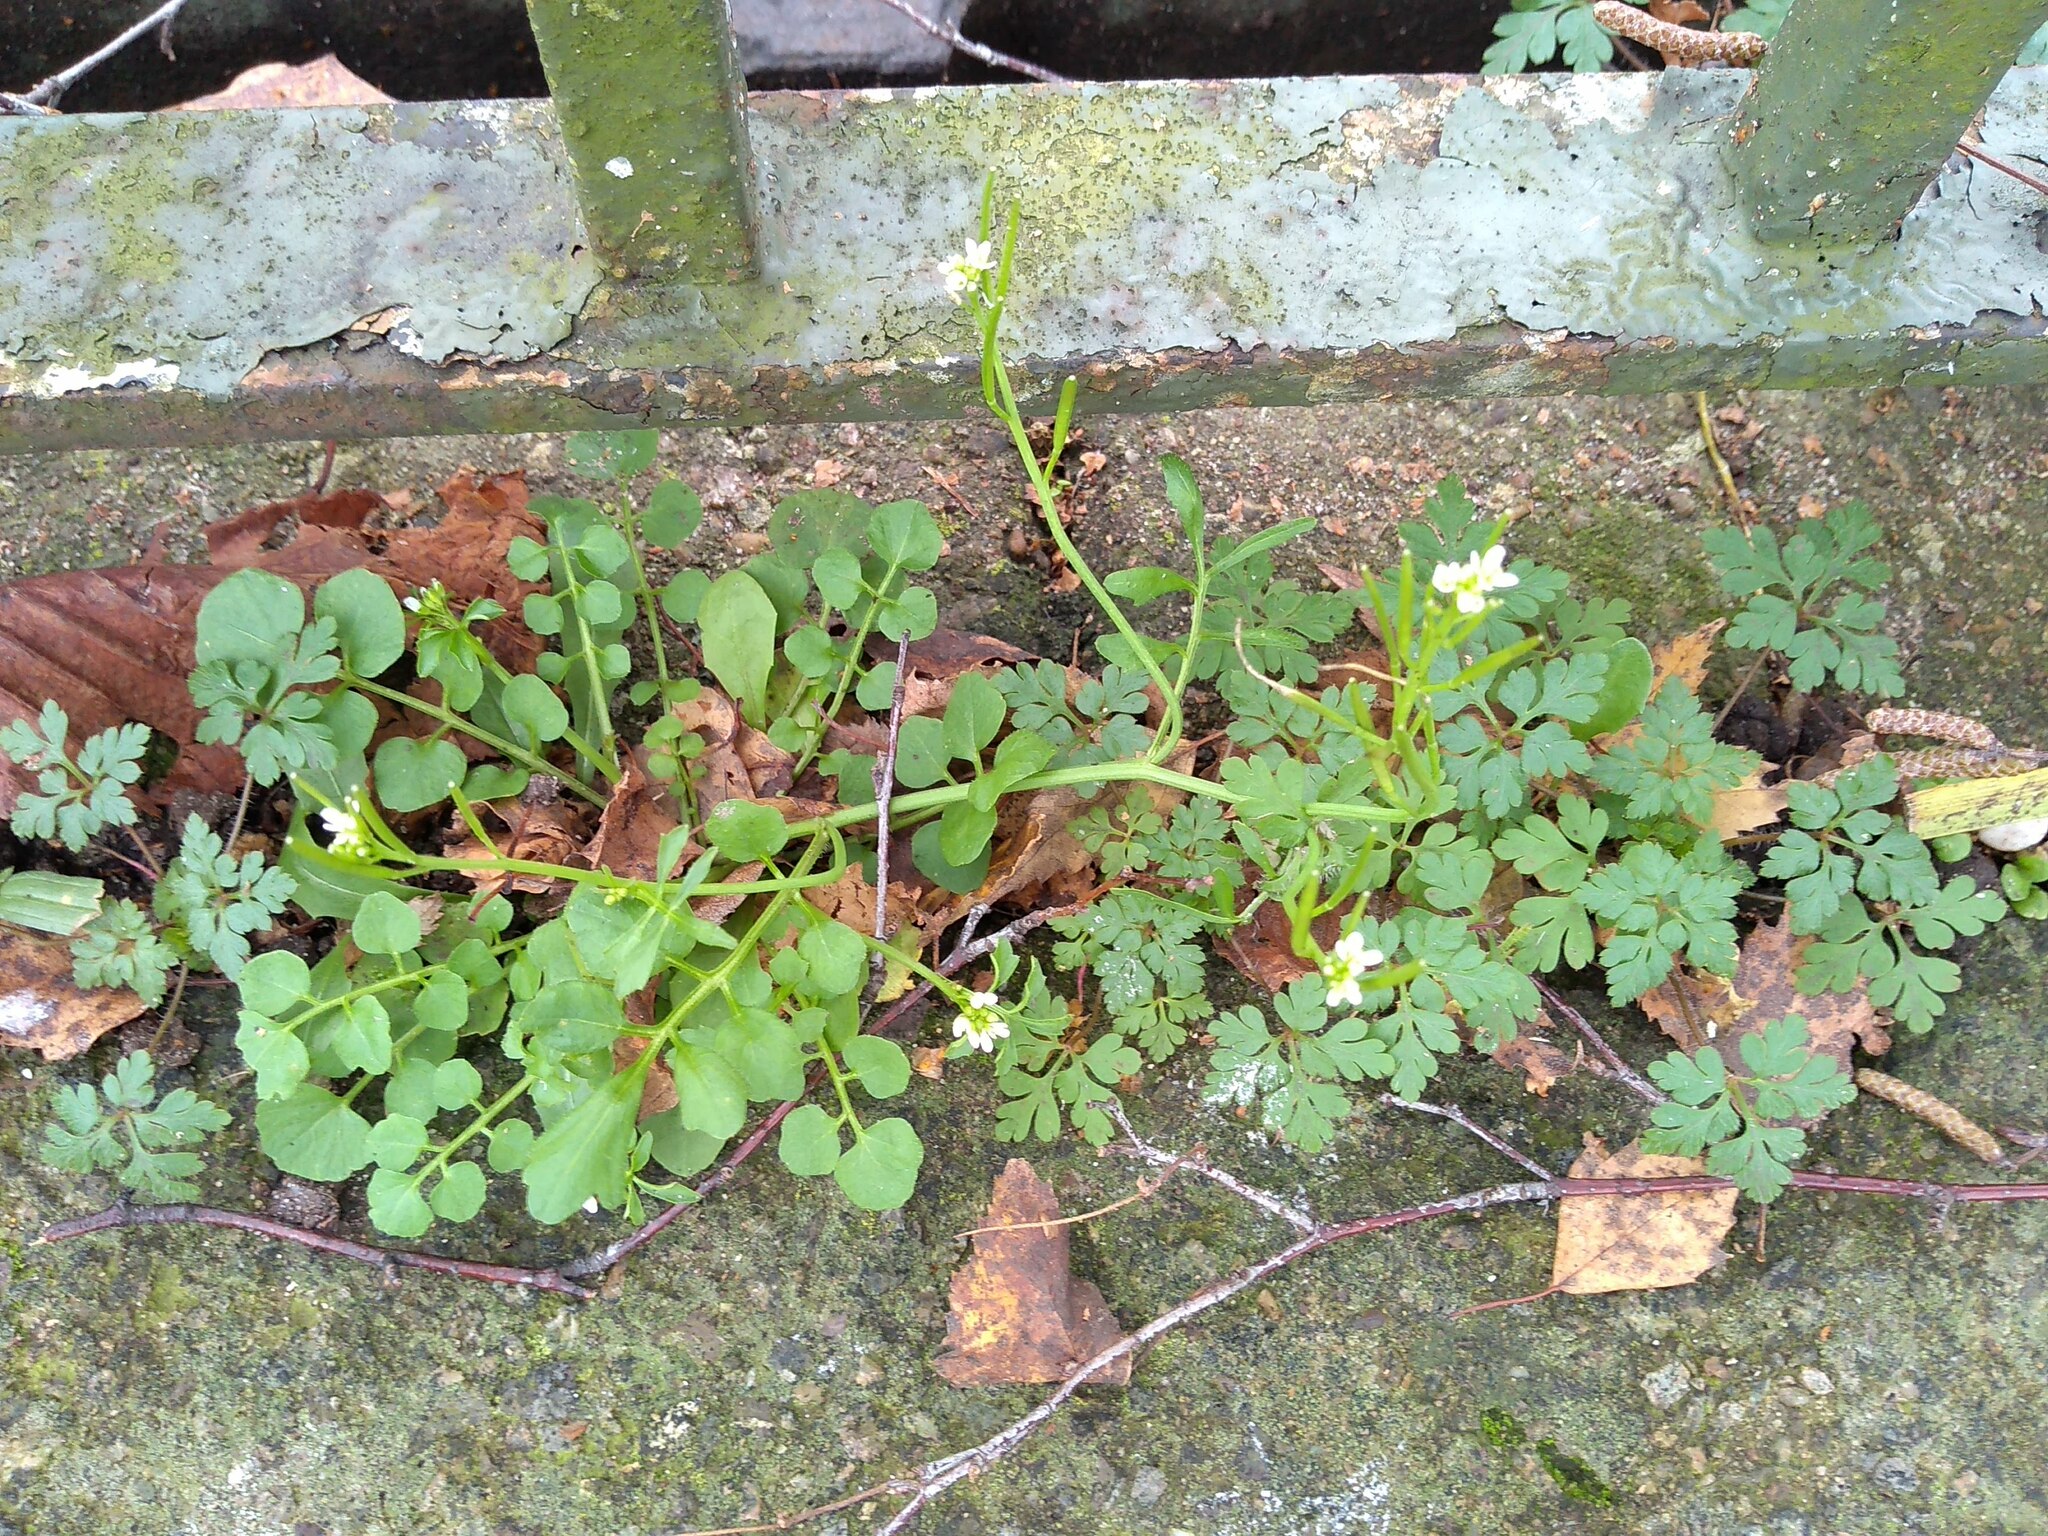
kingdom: Plantae
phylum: Tracheophyta
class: Magnoliopsida
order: Brassicales
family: Brassicaceae
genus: Cardamine
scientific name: Cardamine hirsuta
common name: Hairy bittercress
